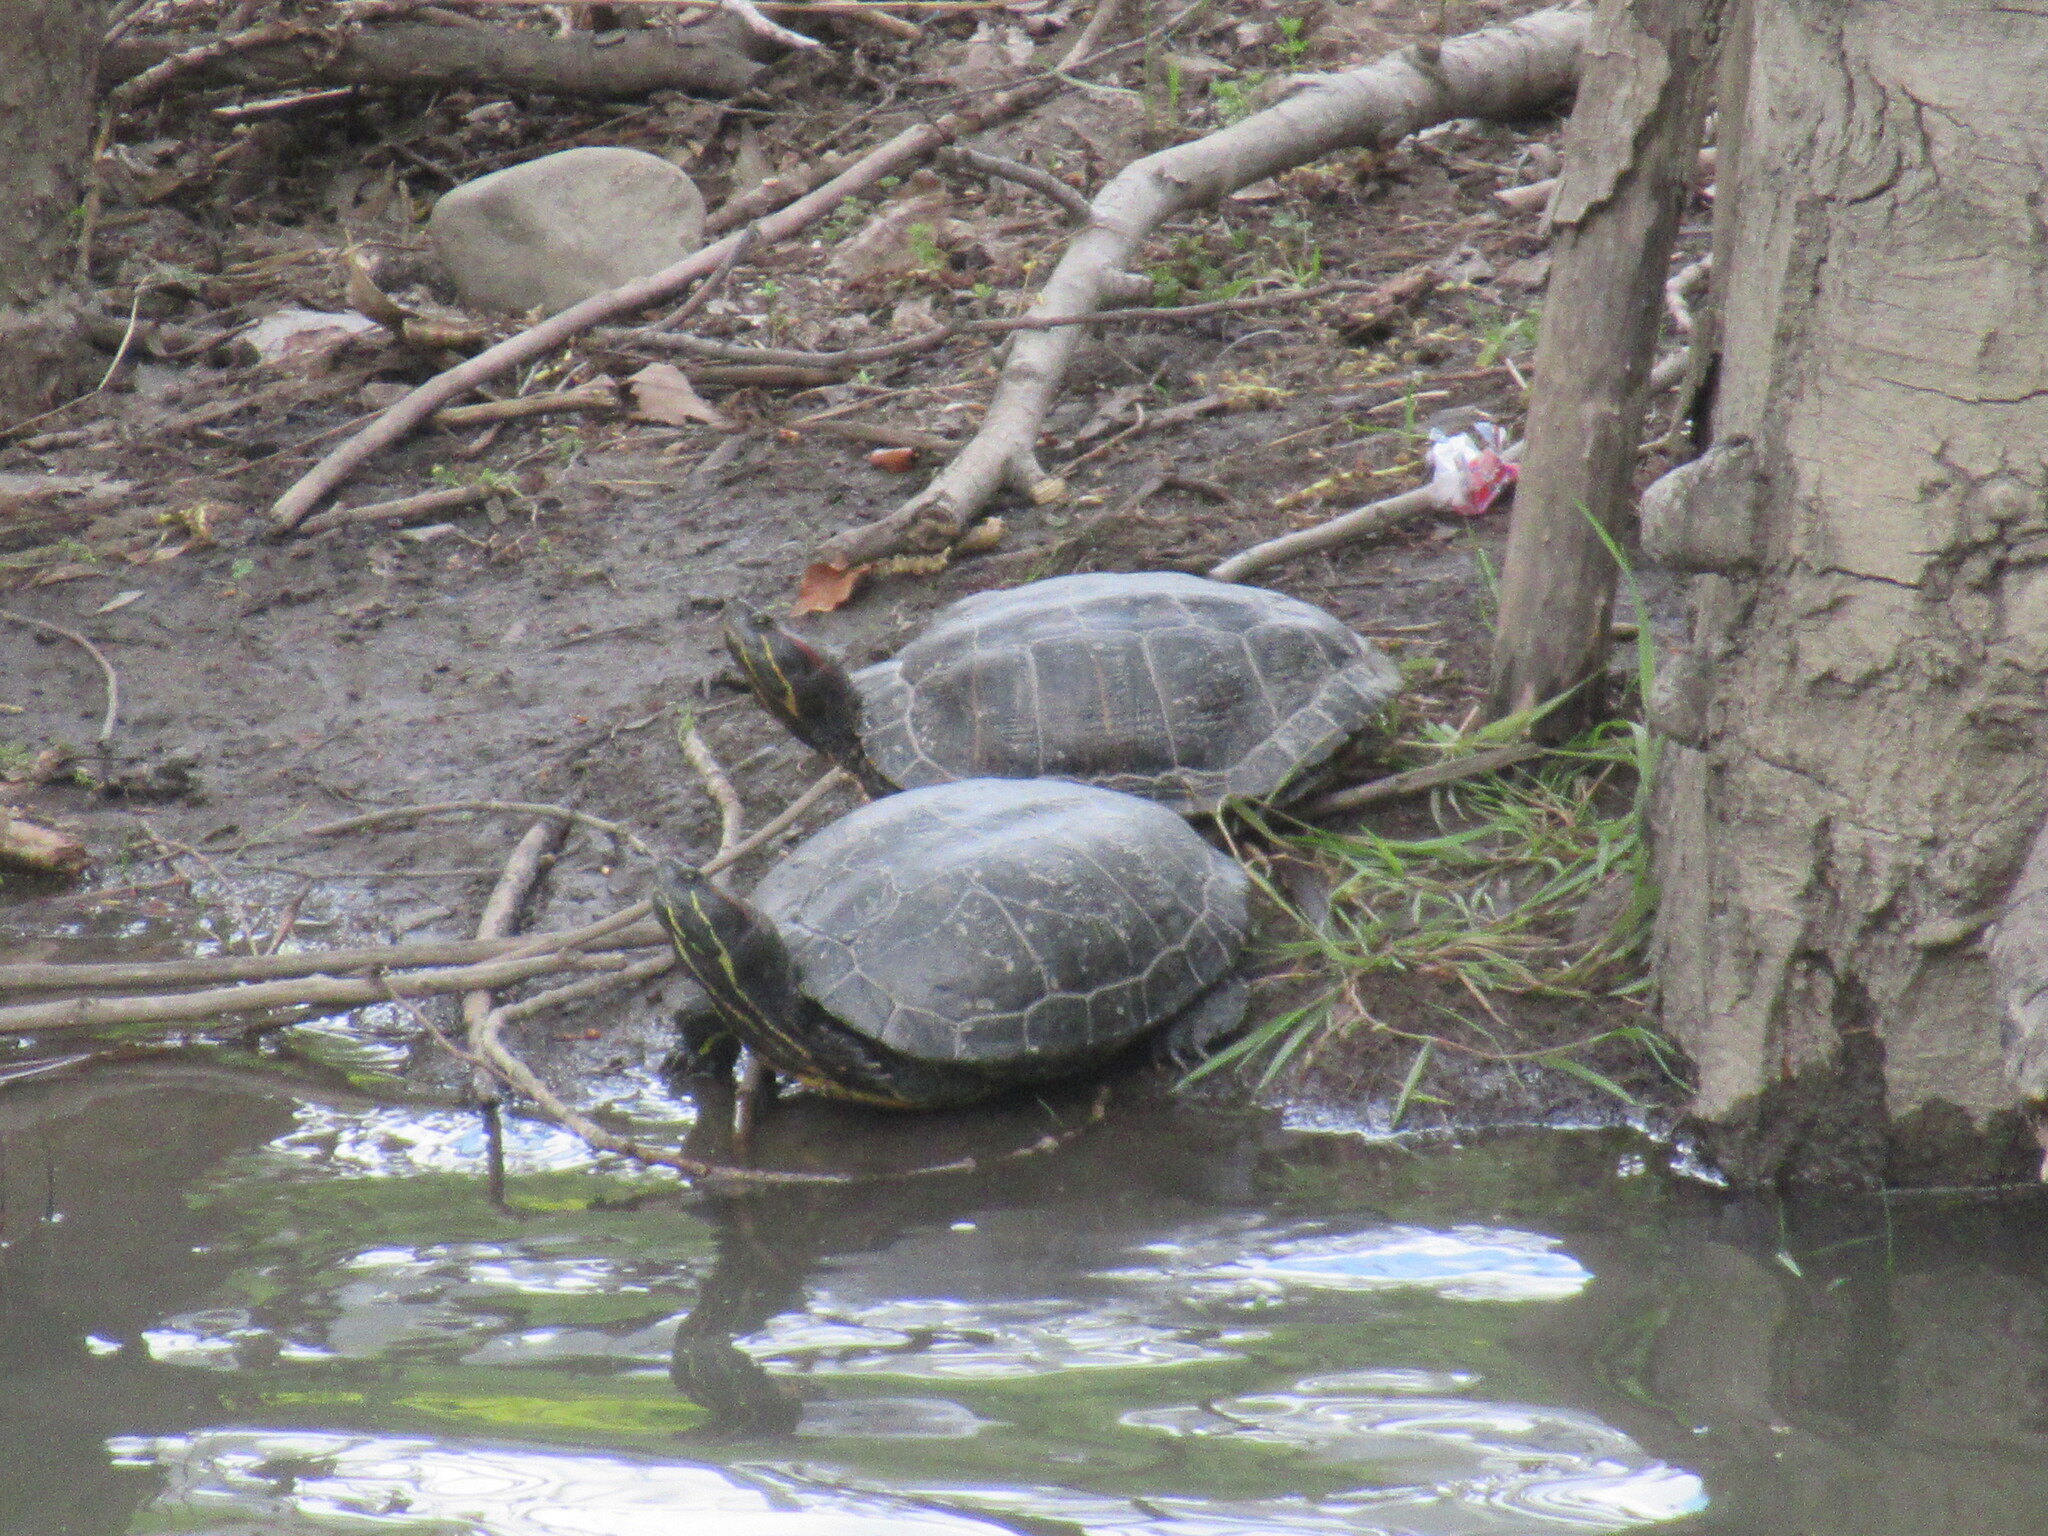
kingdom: Animalia
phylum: Chordata
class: Testudines
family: Emydidae
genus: Trachemys
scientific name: Trachemys scripta
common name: Slider
